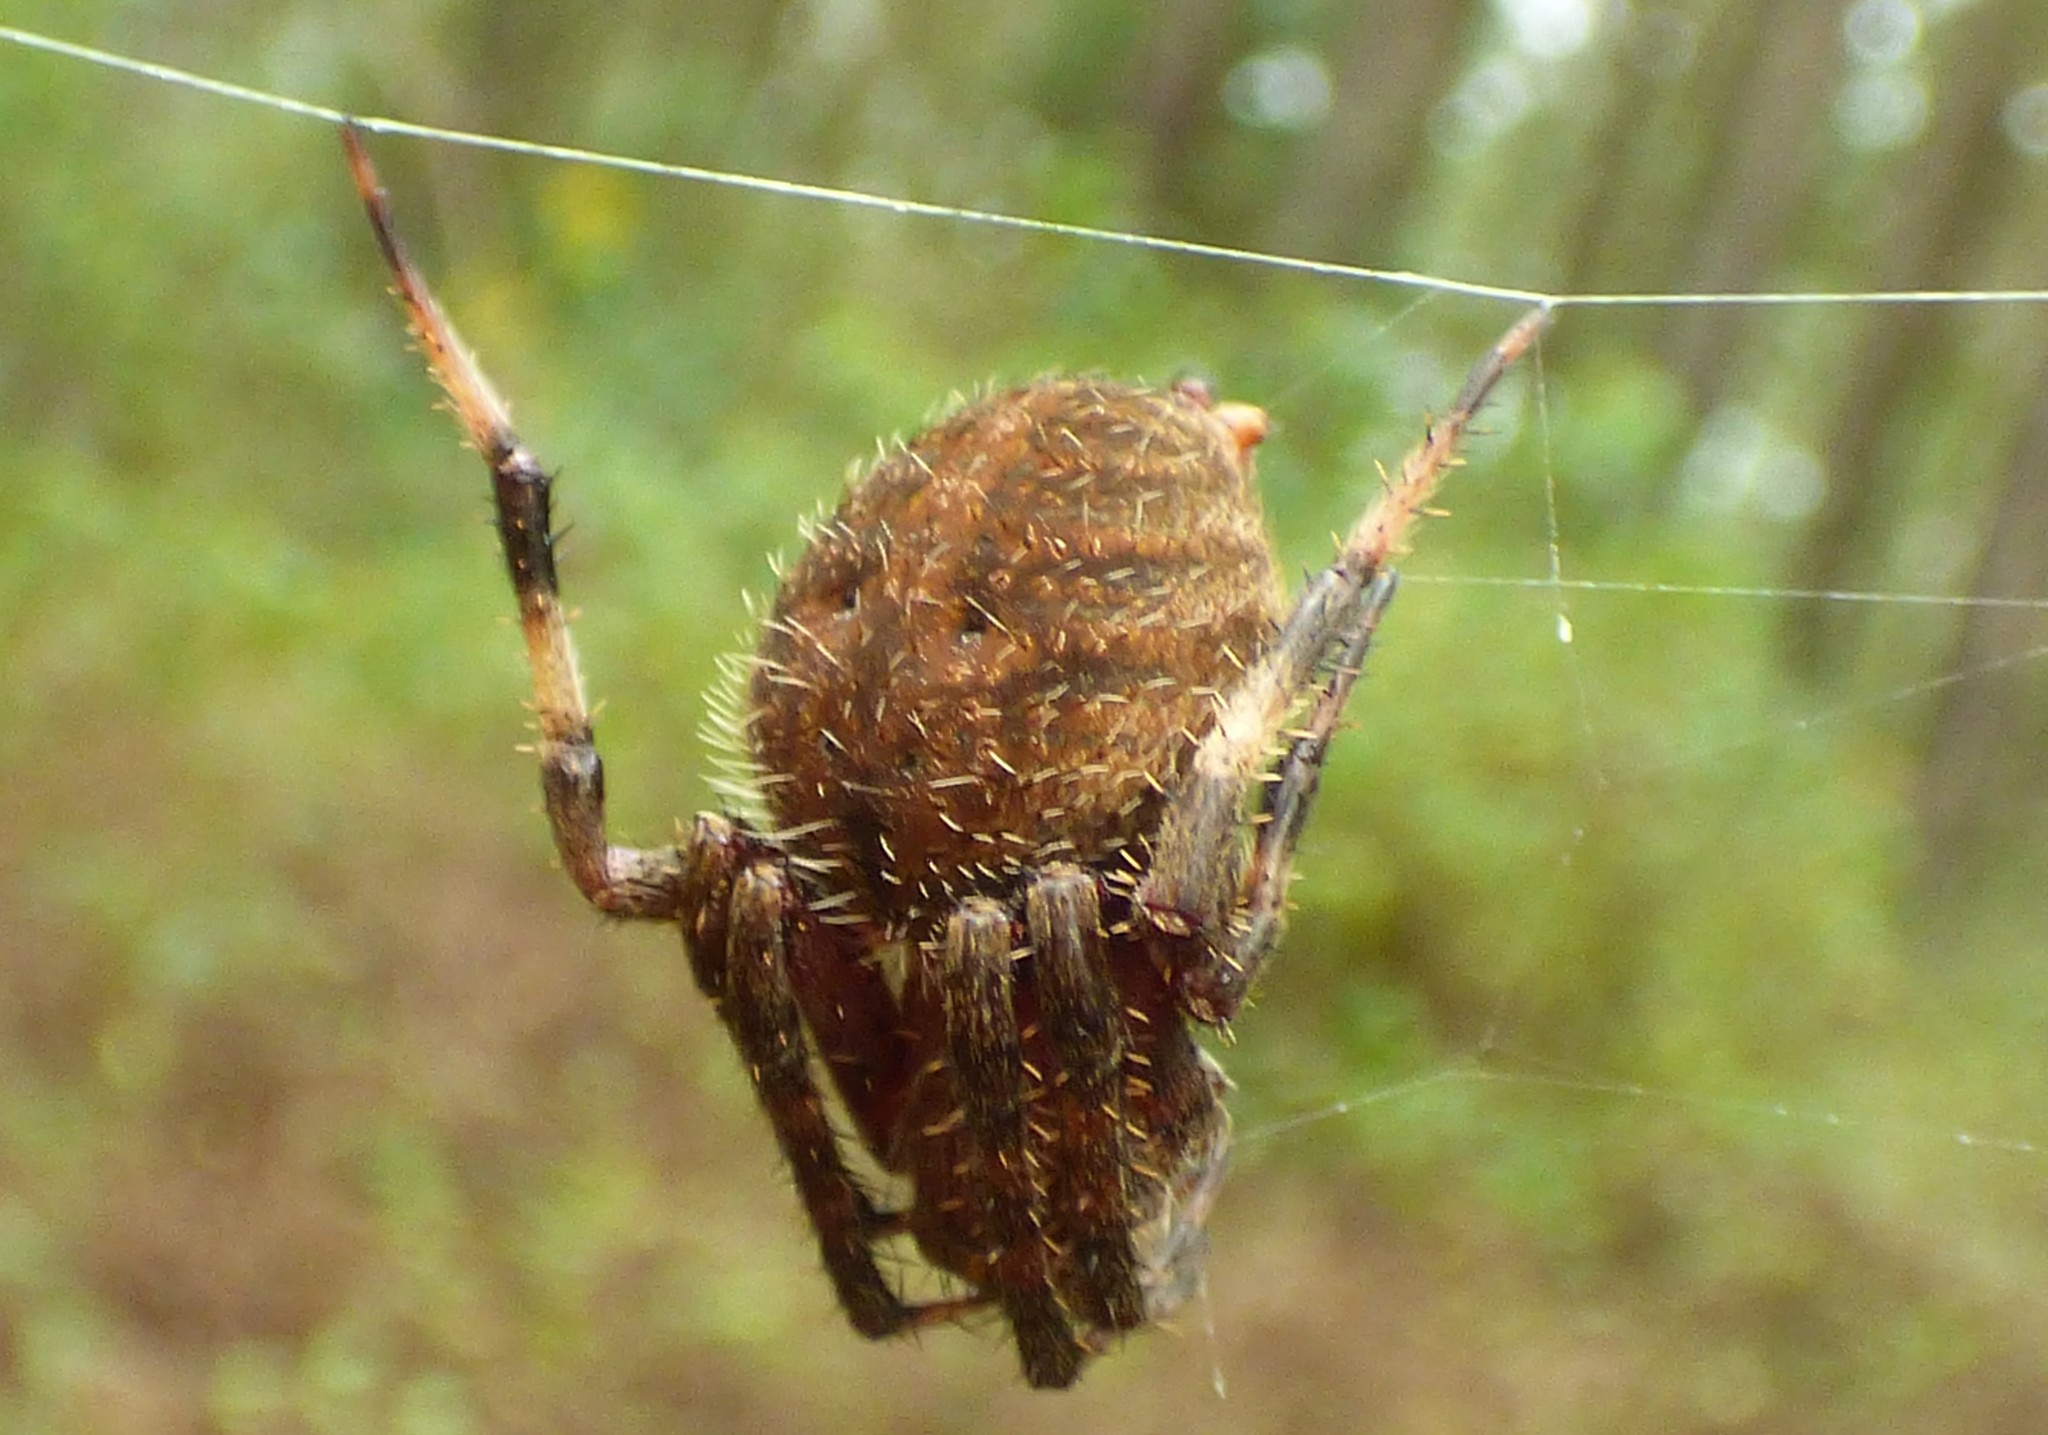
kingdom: Animalia
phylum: Arthropoda
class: Arachnida
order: Araneae
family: Araneidae
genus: Neoscona
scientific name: Neoscona crucifera
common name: Spotted orbweaver
